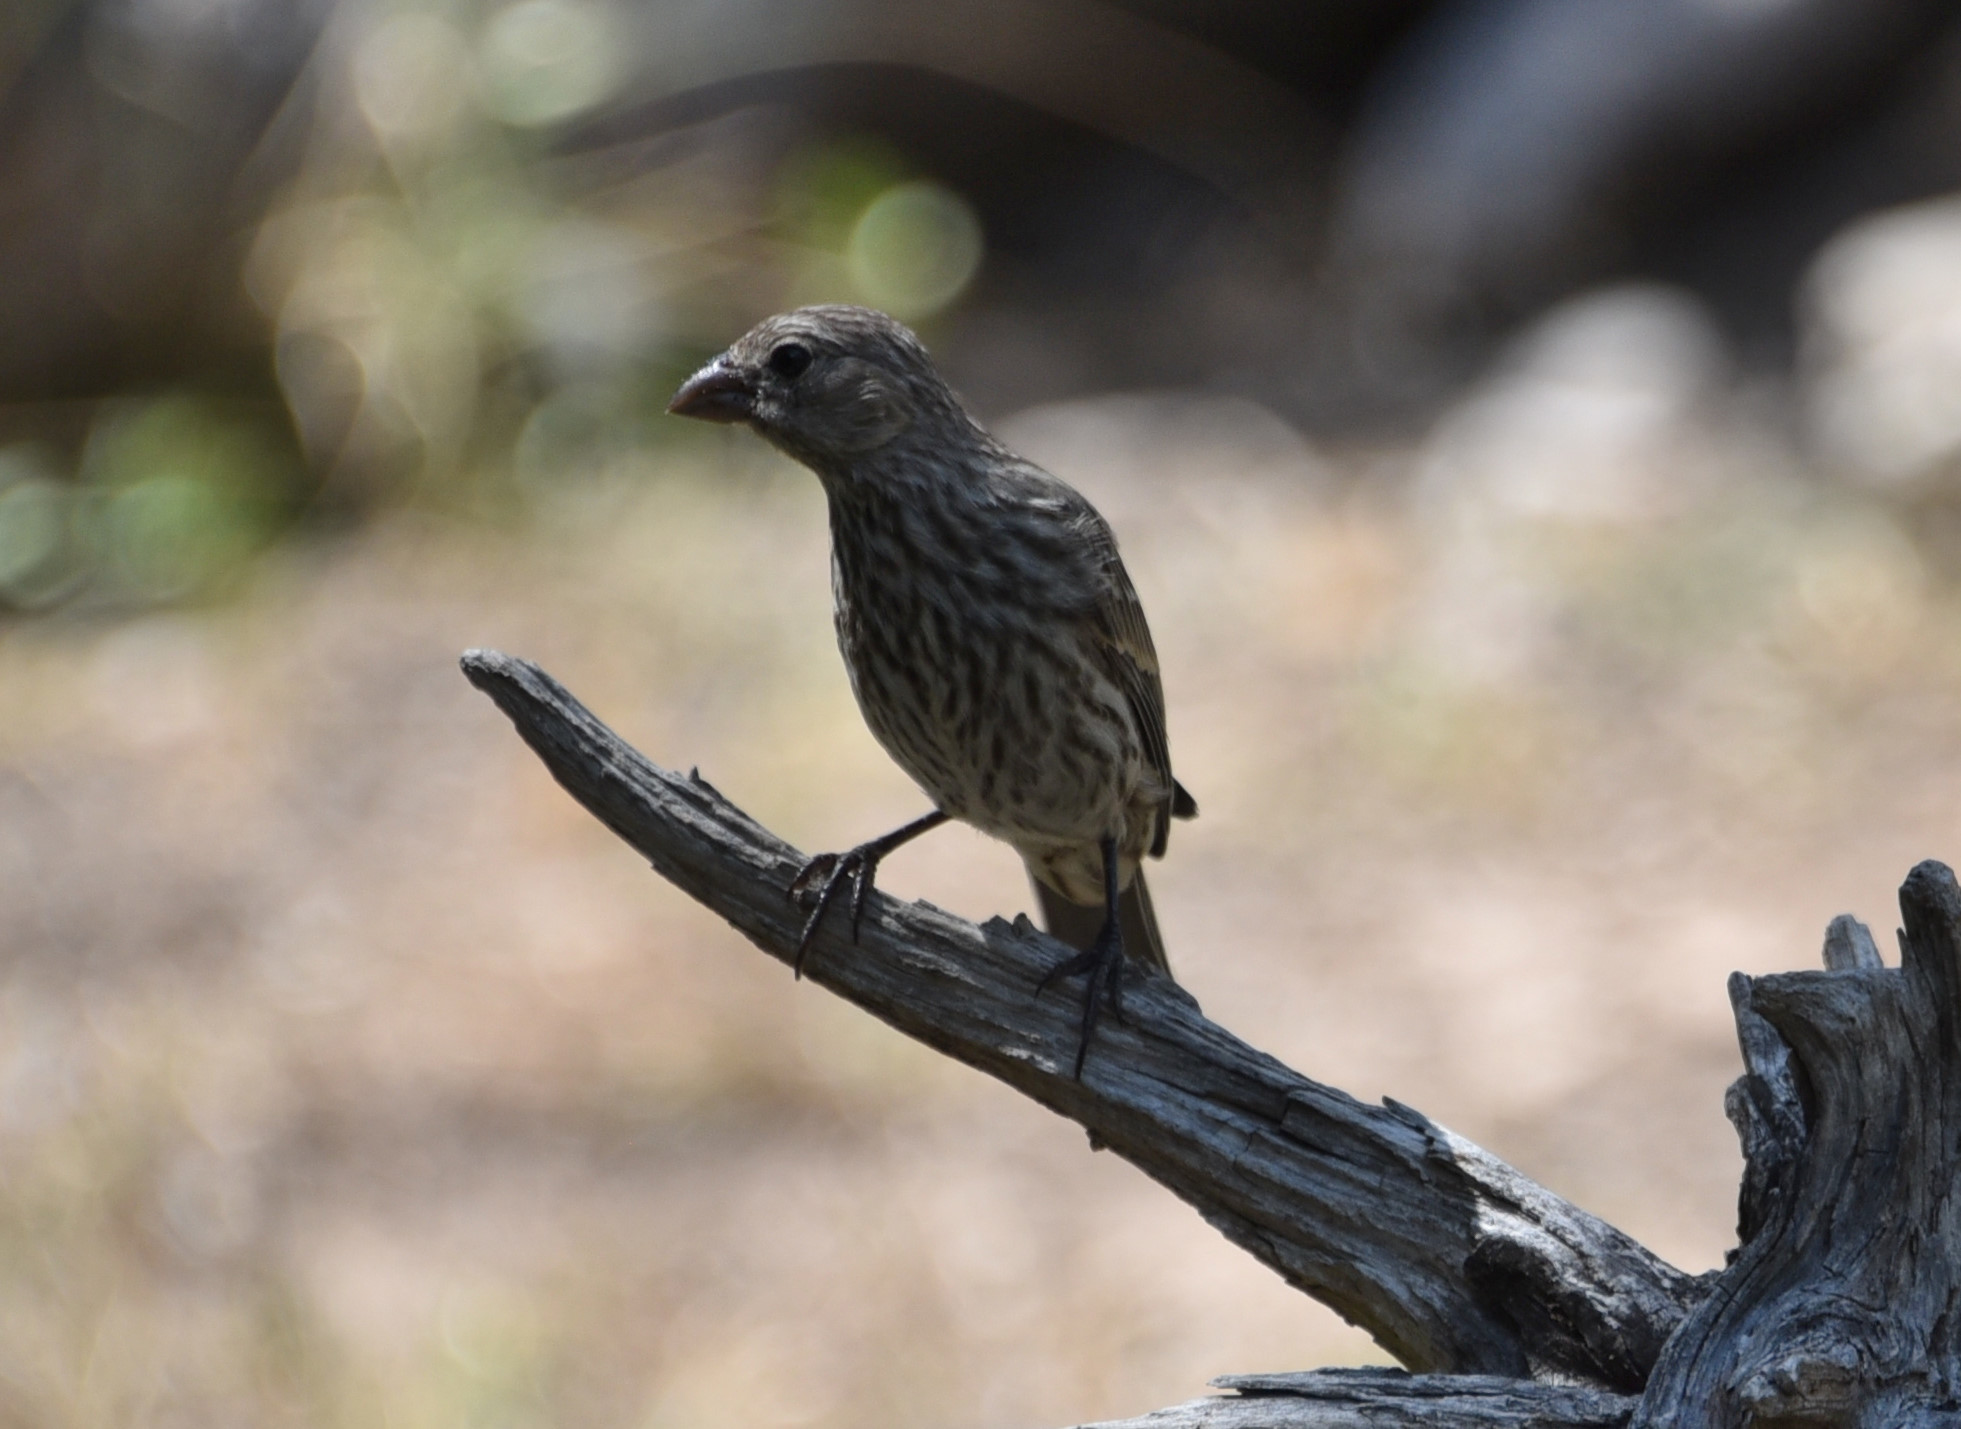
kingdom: Animalia
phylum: Chordata
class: Aves
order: Passeriformes
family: Fringillidae
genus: Haemorhous
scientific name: Haemorhous mexicanus
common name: House finch
